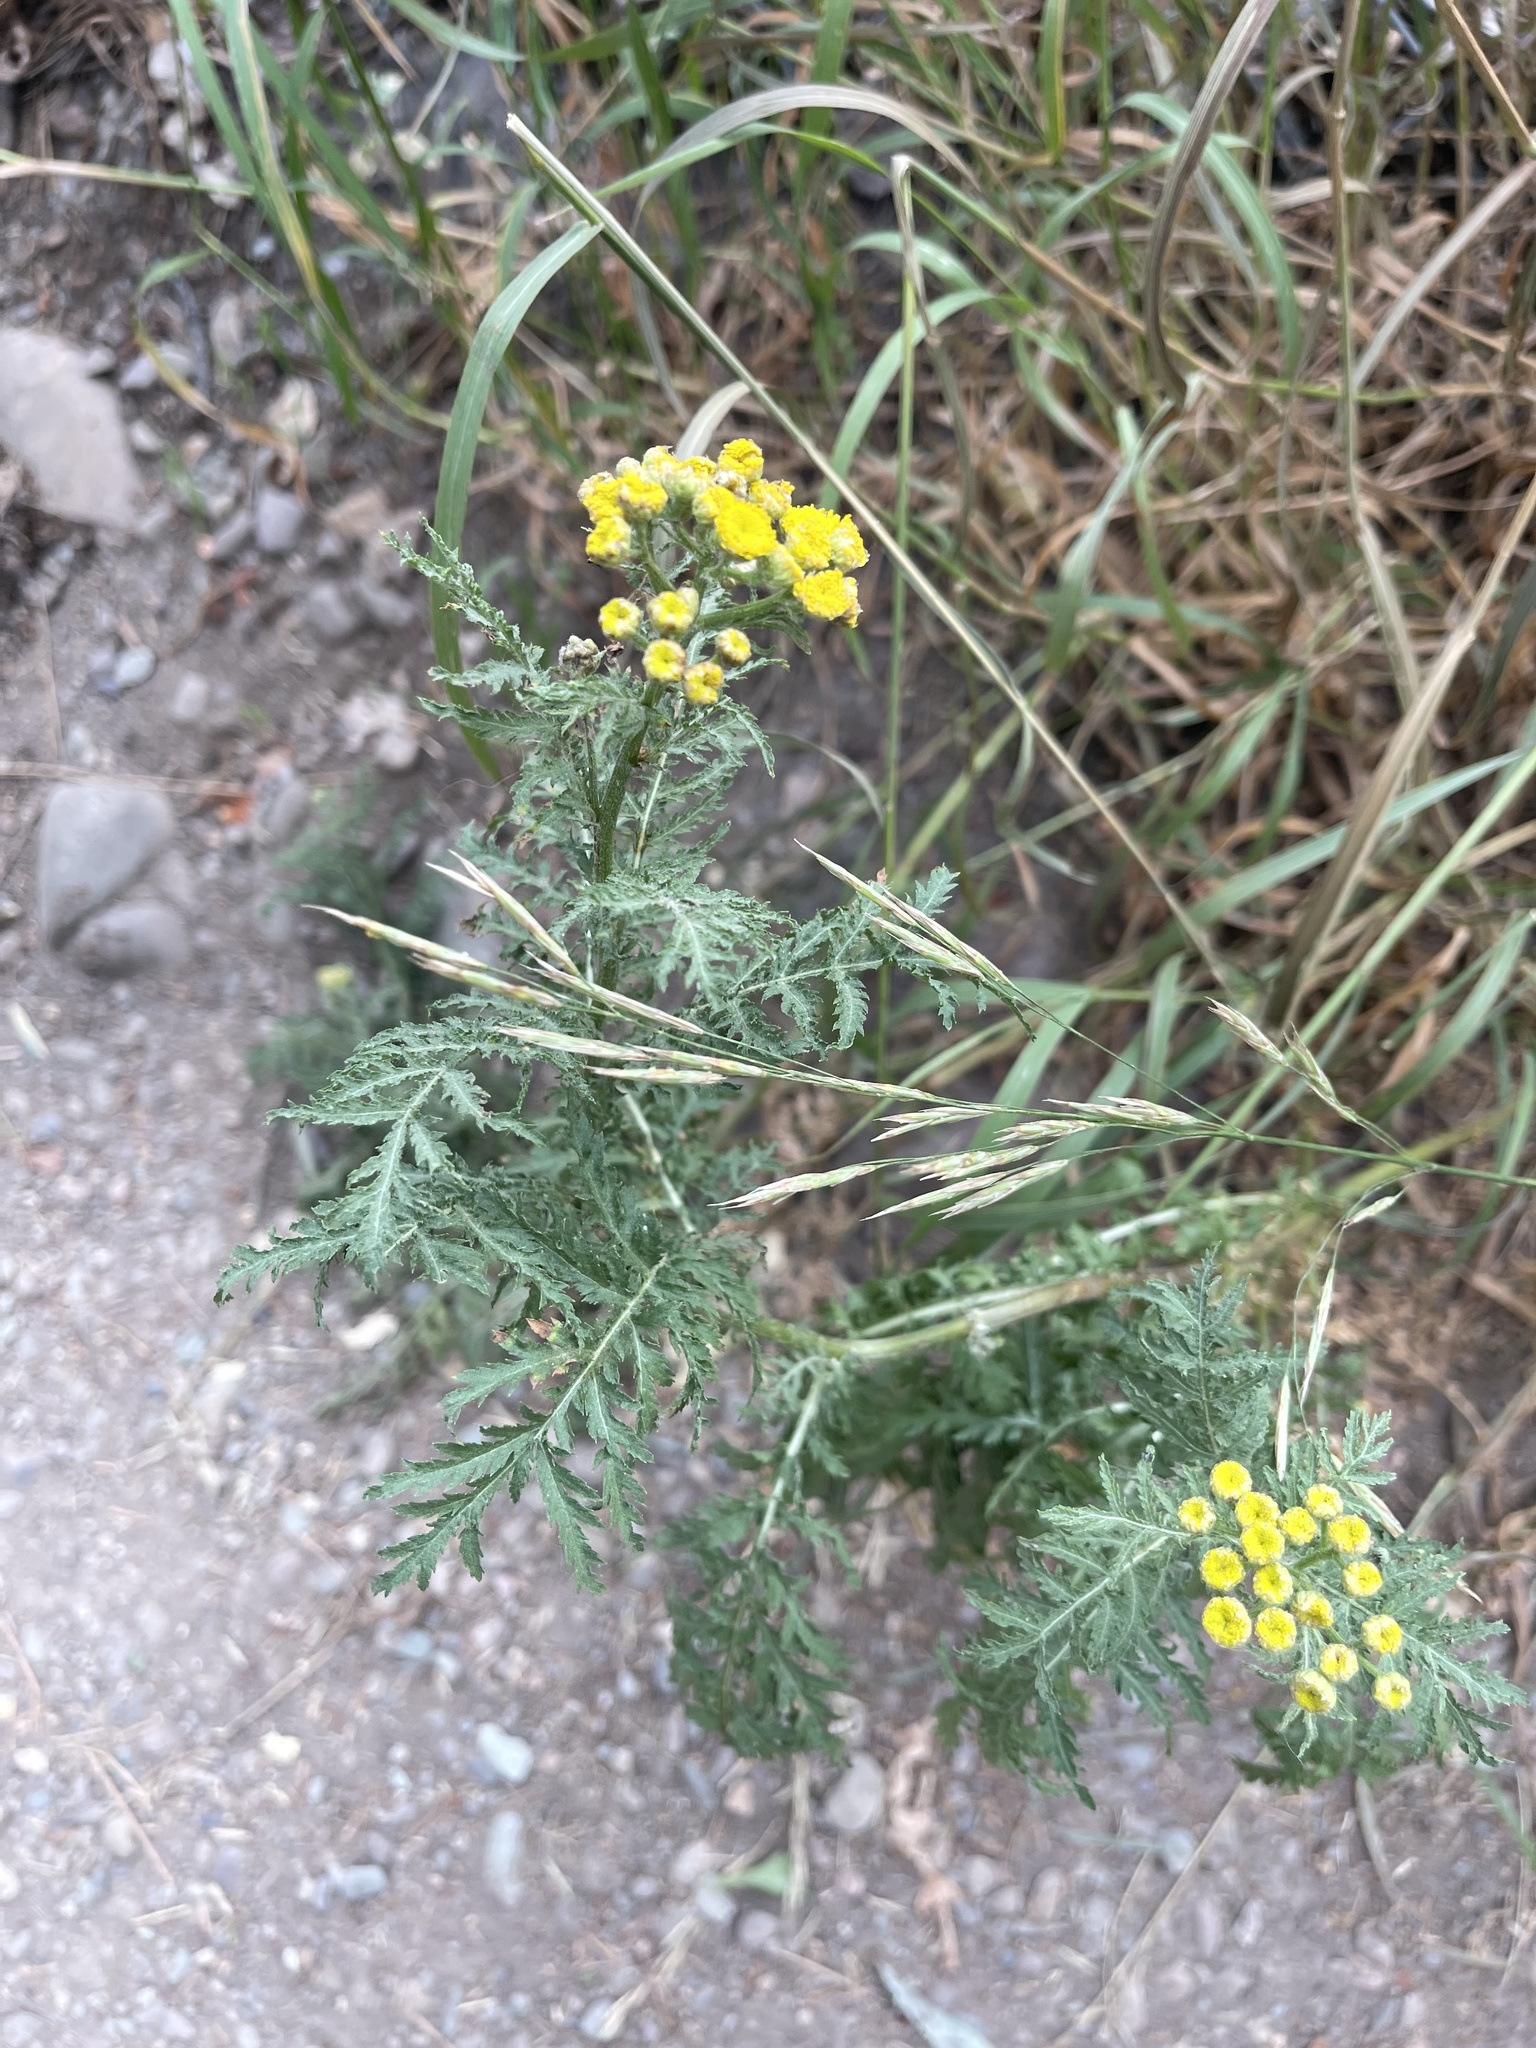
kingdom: Plantae
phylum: Tracheophyta
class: Magnoliopsida
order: Asterales
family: Asteraceae
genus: Tanacetum
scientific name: Tanacetum vulgare
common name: Common tansy
